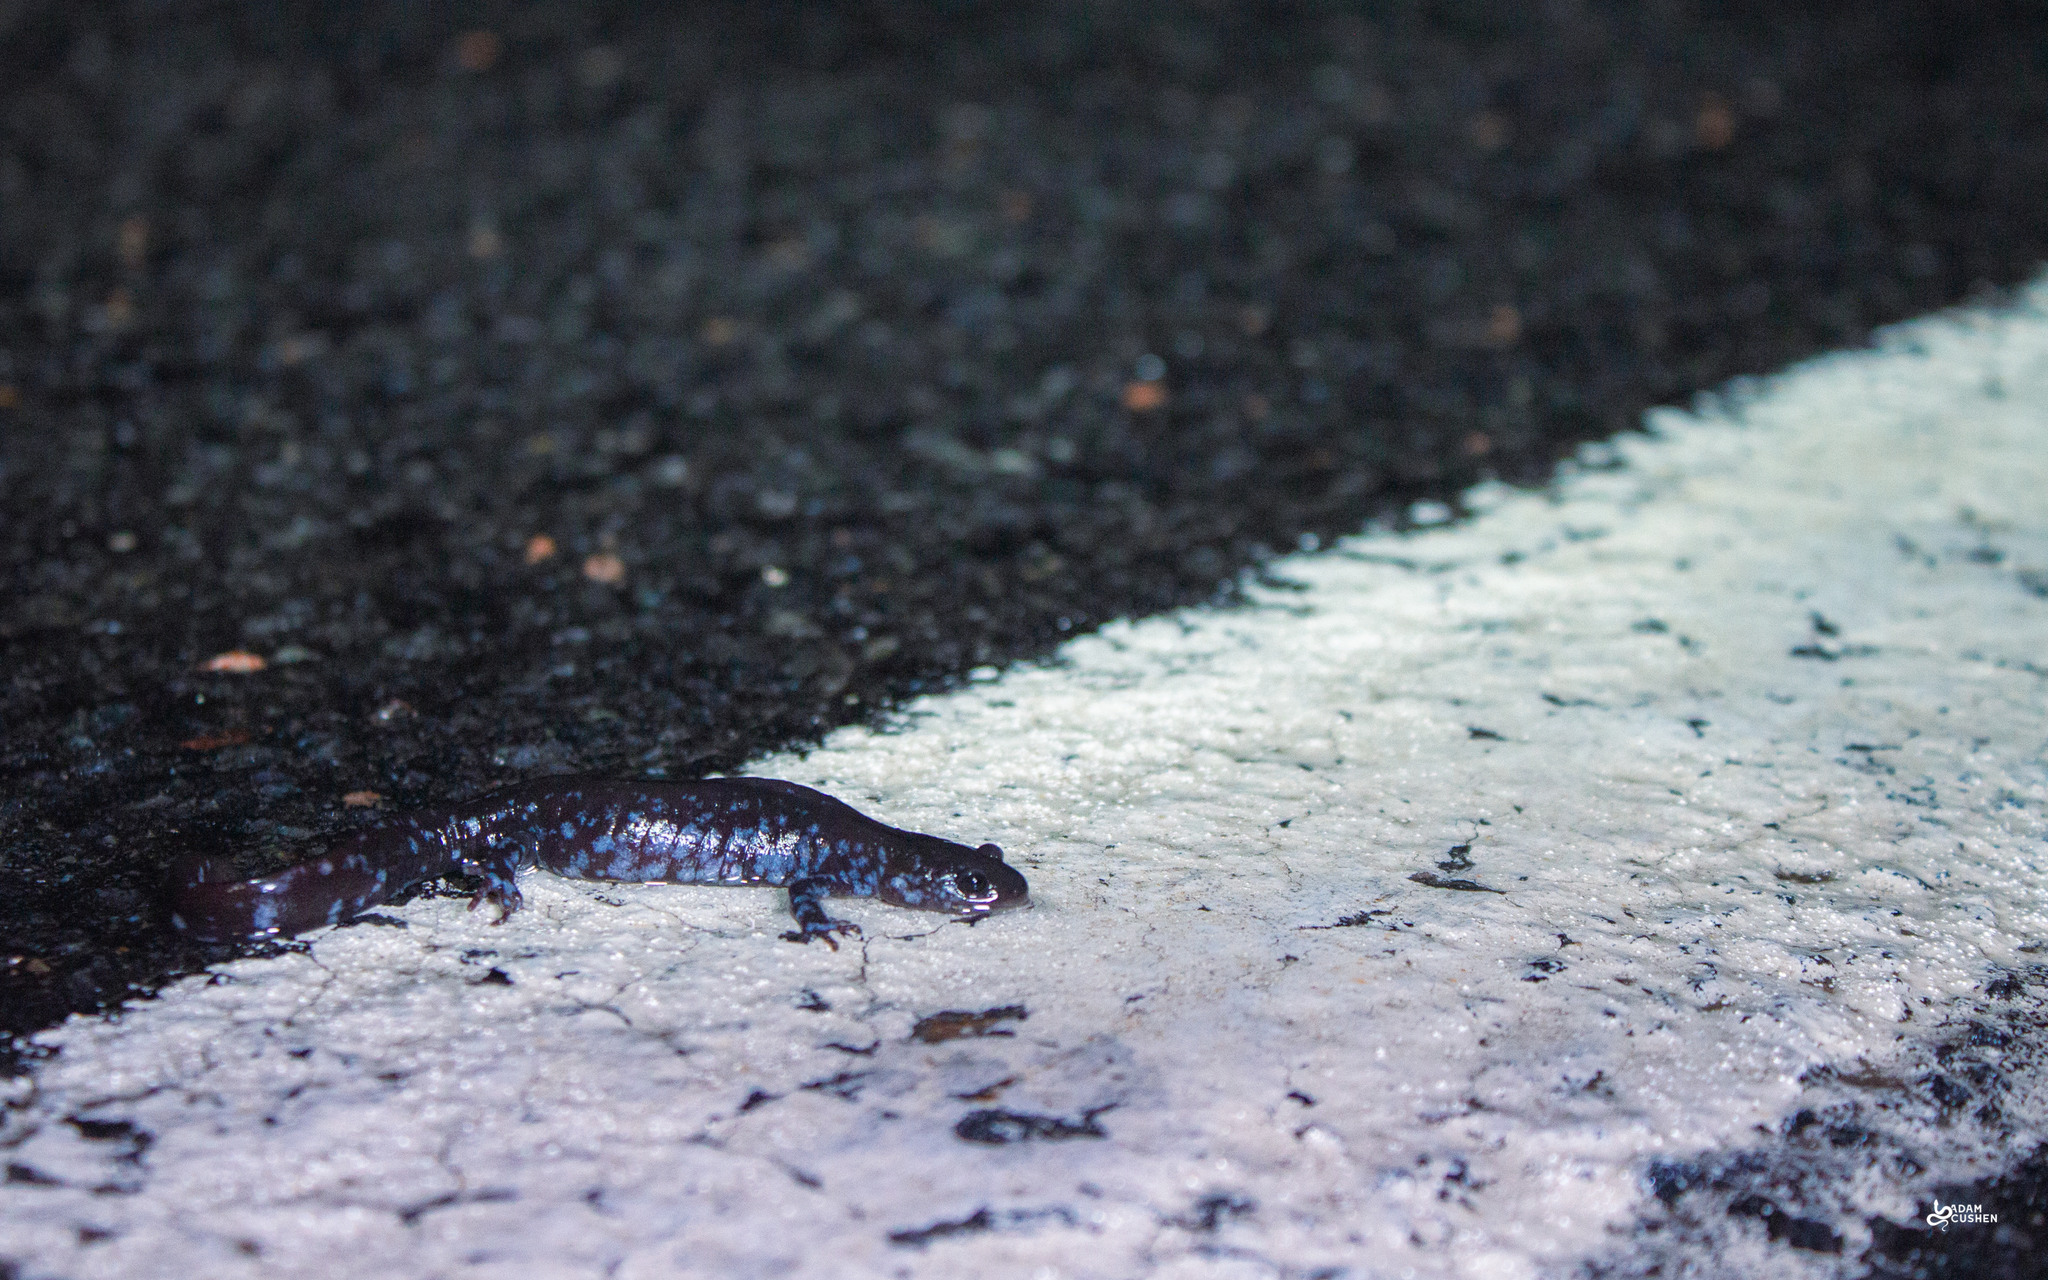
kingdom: Animalia
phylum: Chordata
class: Amphibia
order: Caudata
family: Ambystomatidae
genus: Ambystoma
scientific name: Ambystoma laterale
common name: Blue-spotted salamander
